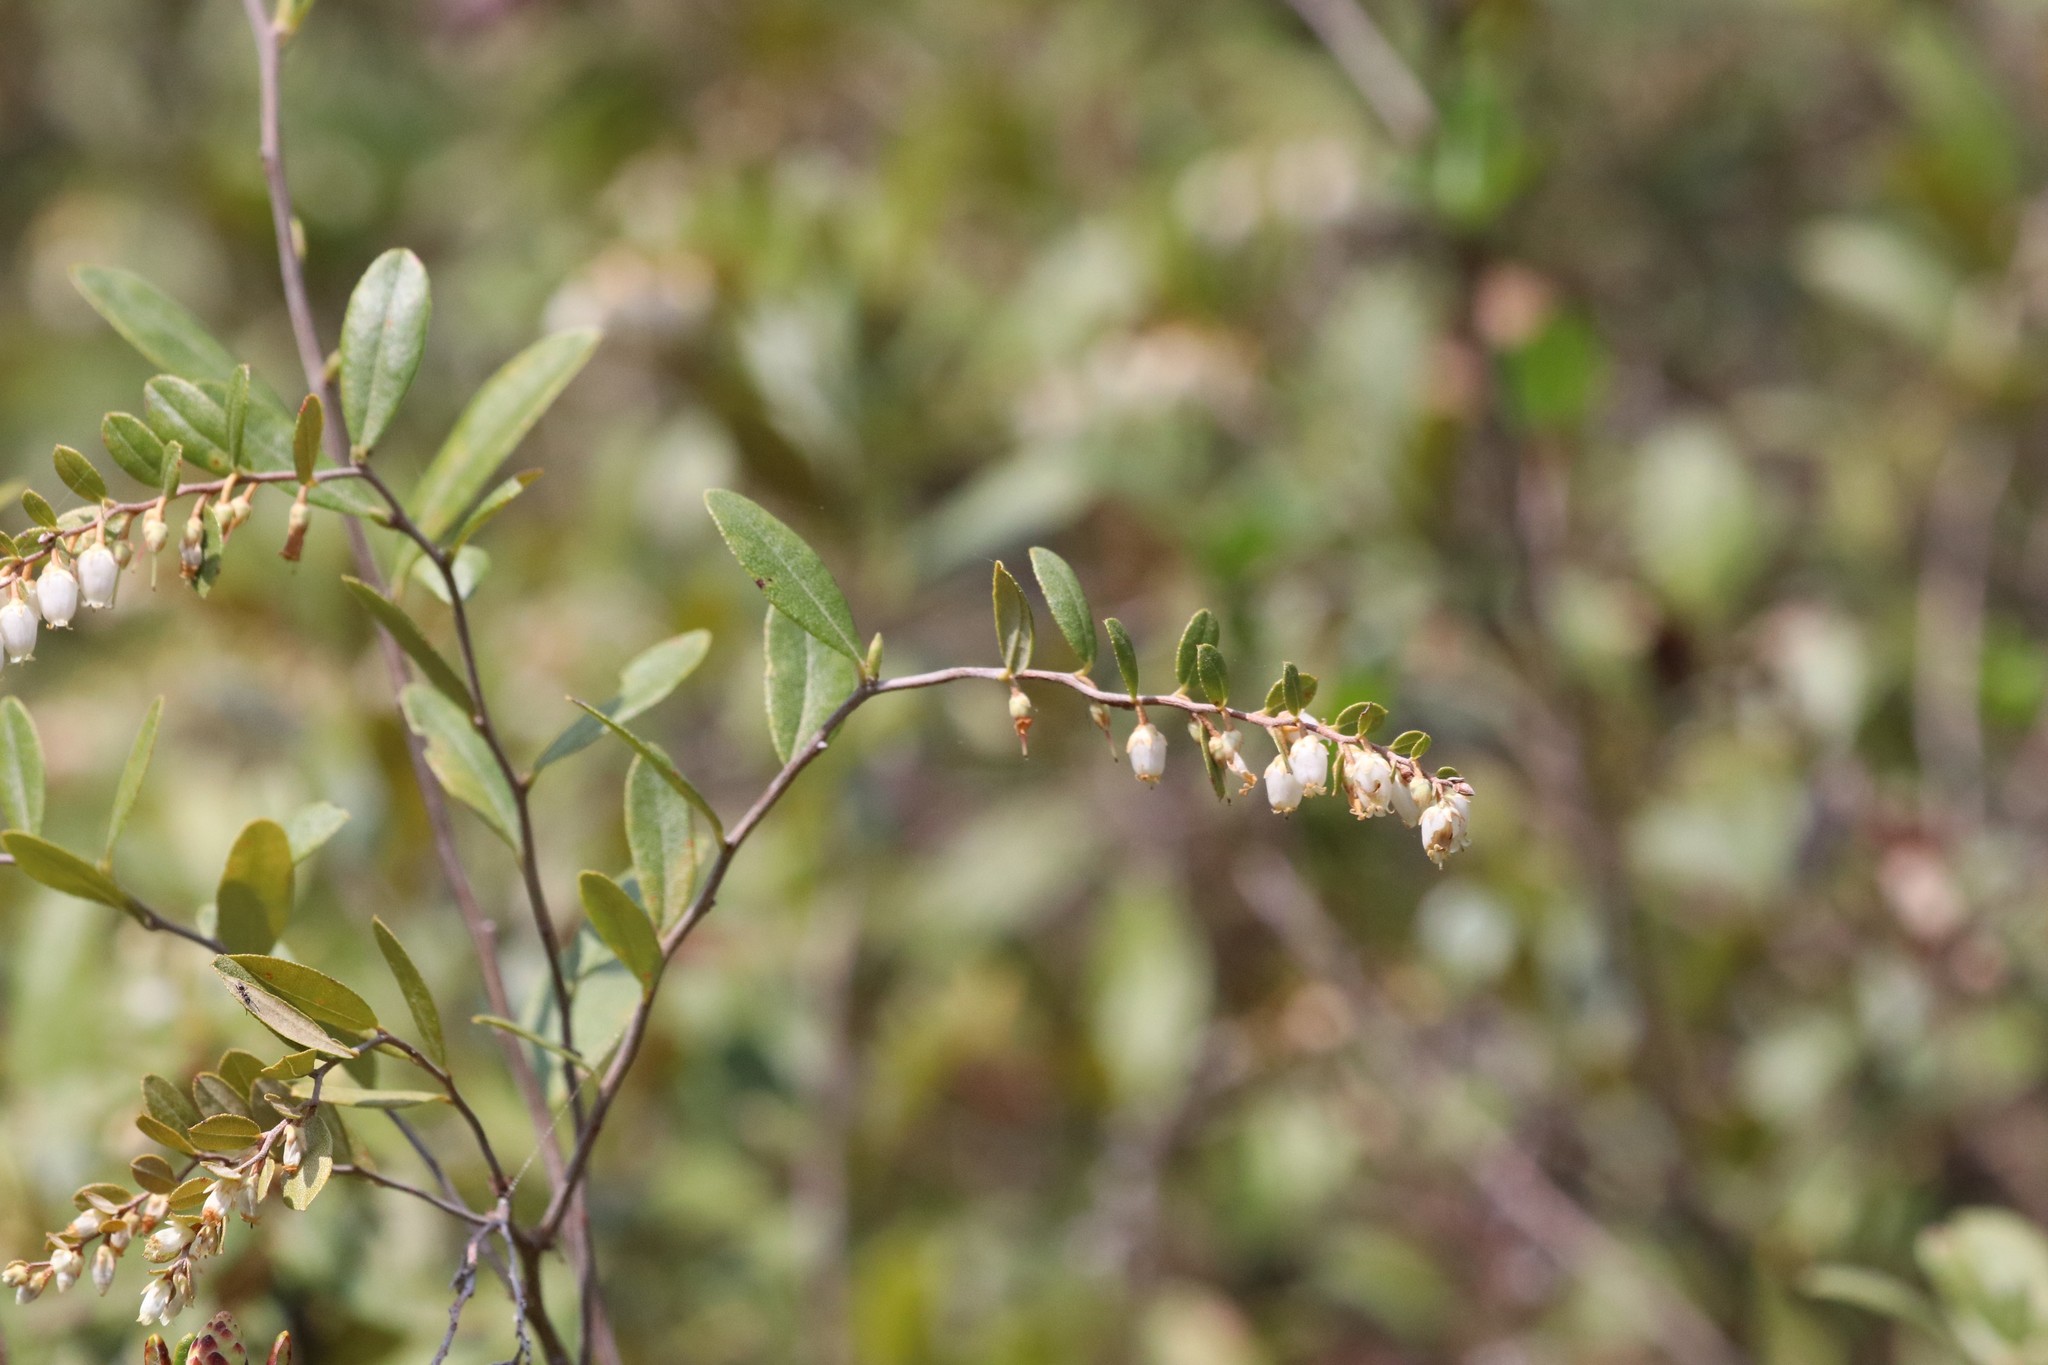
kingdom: Plantae
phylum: Tracheophyta
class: Magnoliopsida
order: Ericales
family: Ericaceae
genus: Chamaedaphne
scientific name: Chamaedaphne calyculata
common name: Leatherleaf
